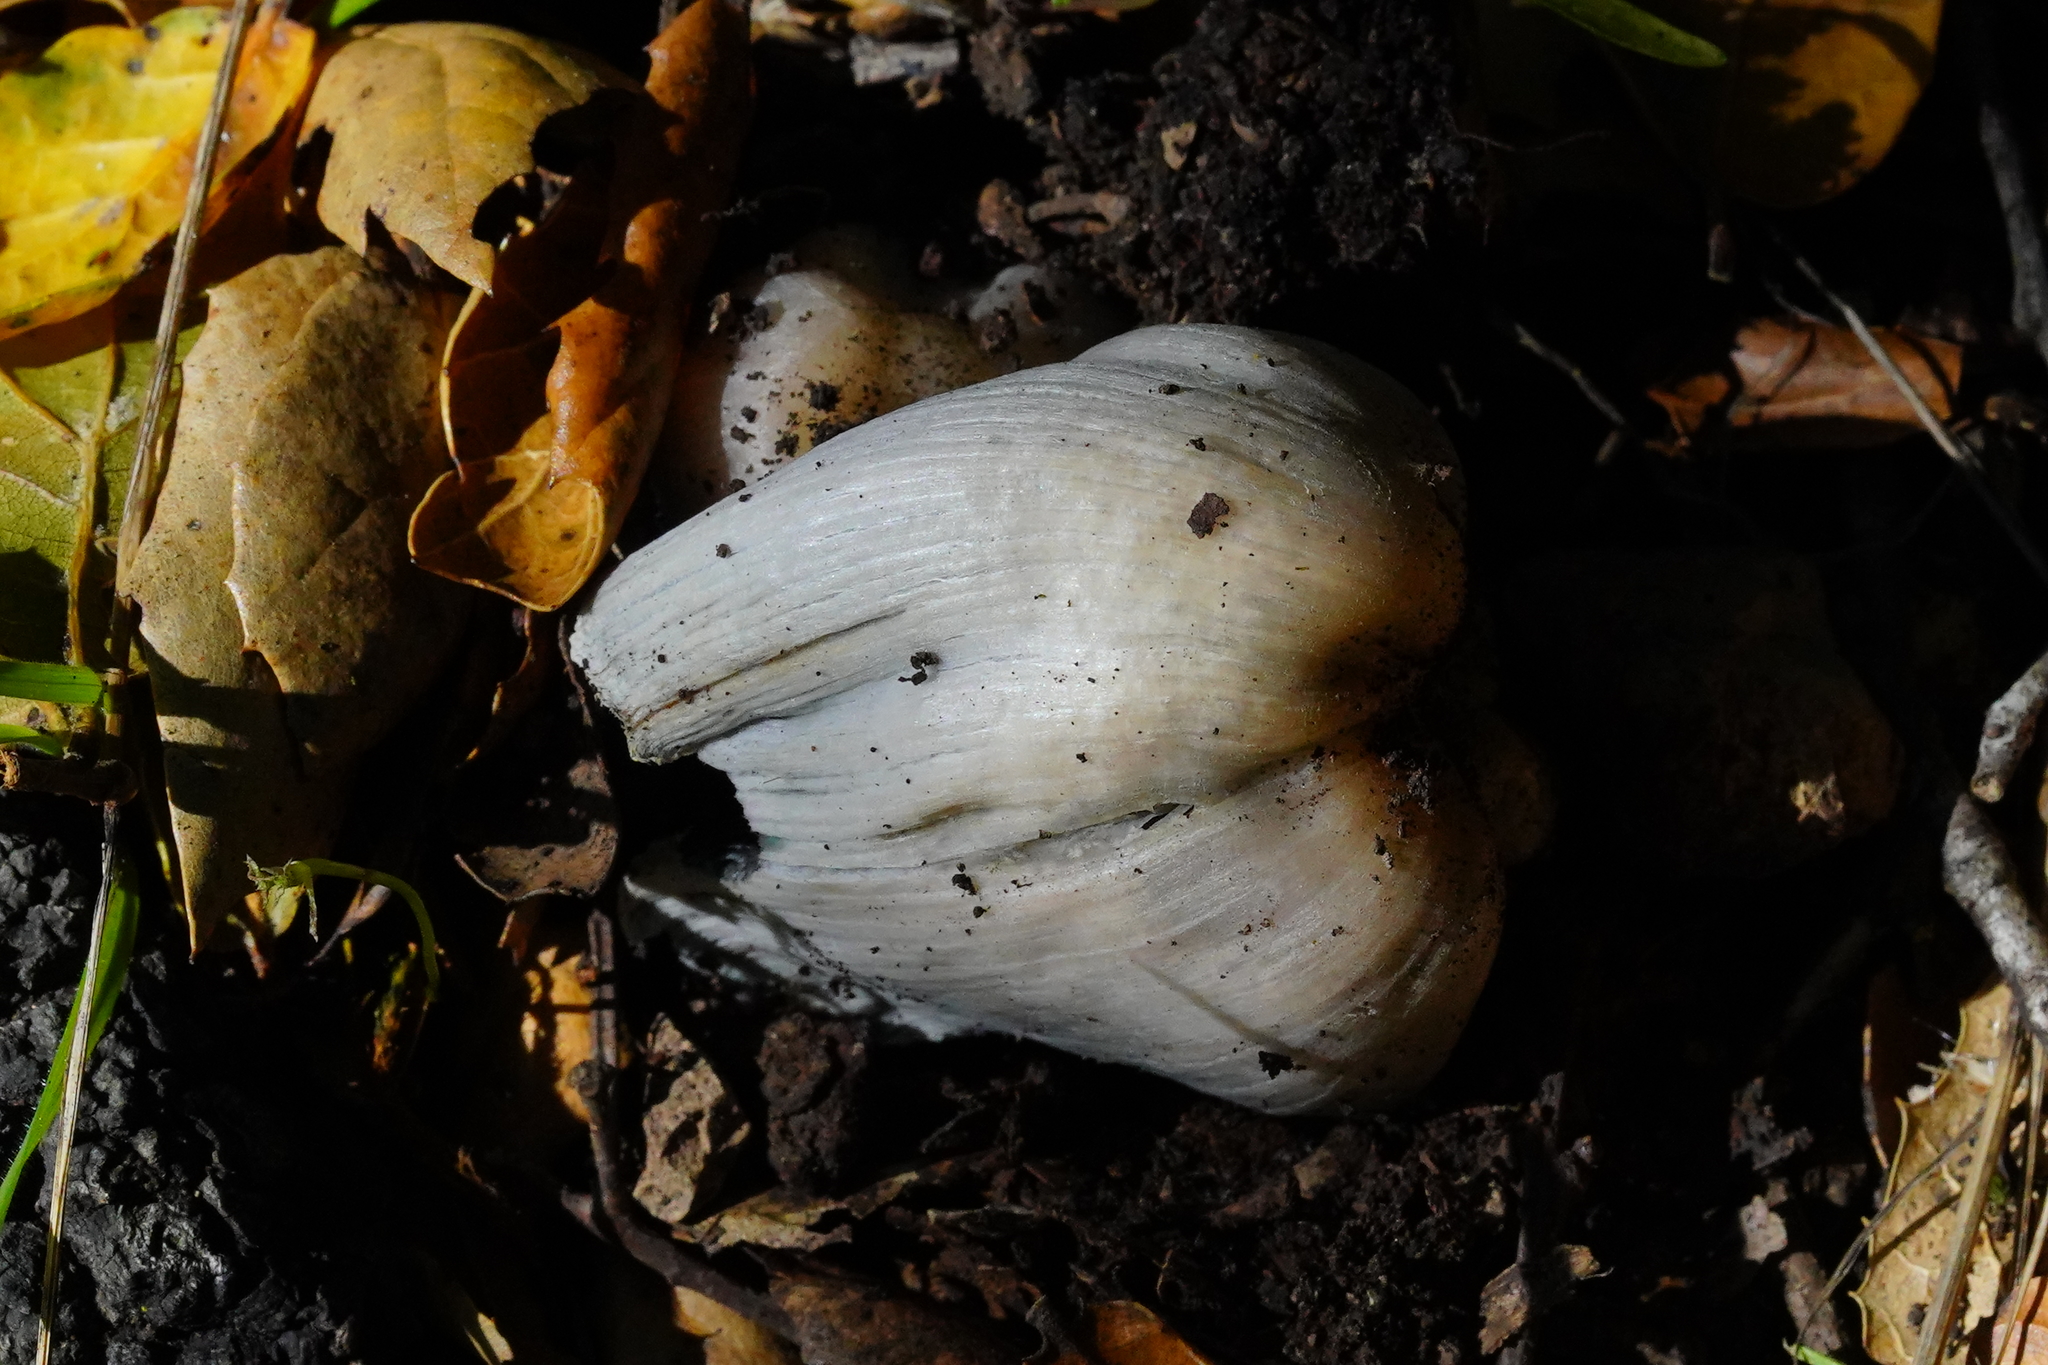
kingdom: Fungi
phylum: Basidiomycota
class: Agaricomycetes
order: Agaricales
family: Psathyrellaceae
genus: Coprinopsis
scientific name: Coprinopsis atramentaria
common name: Common ink-cap
